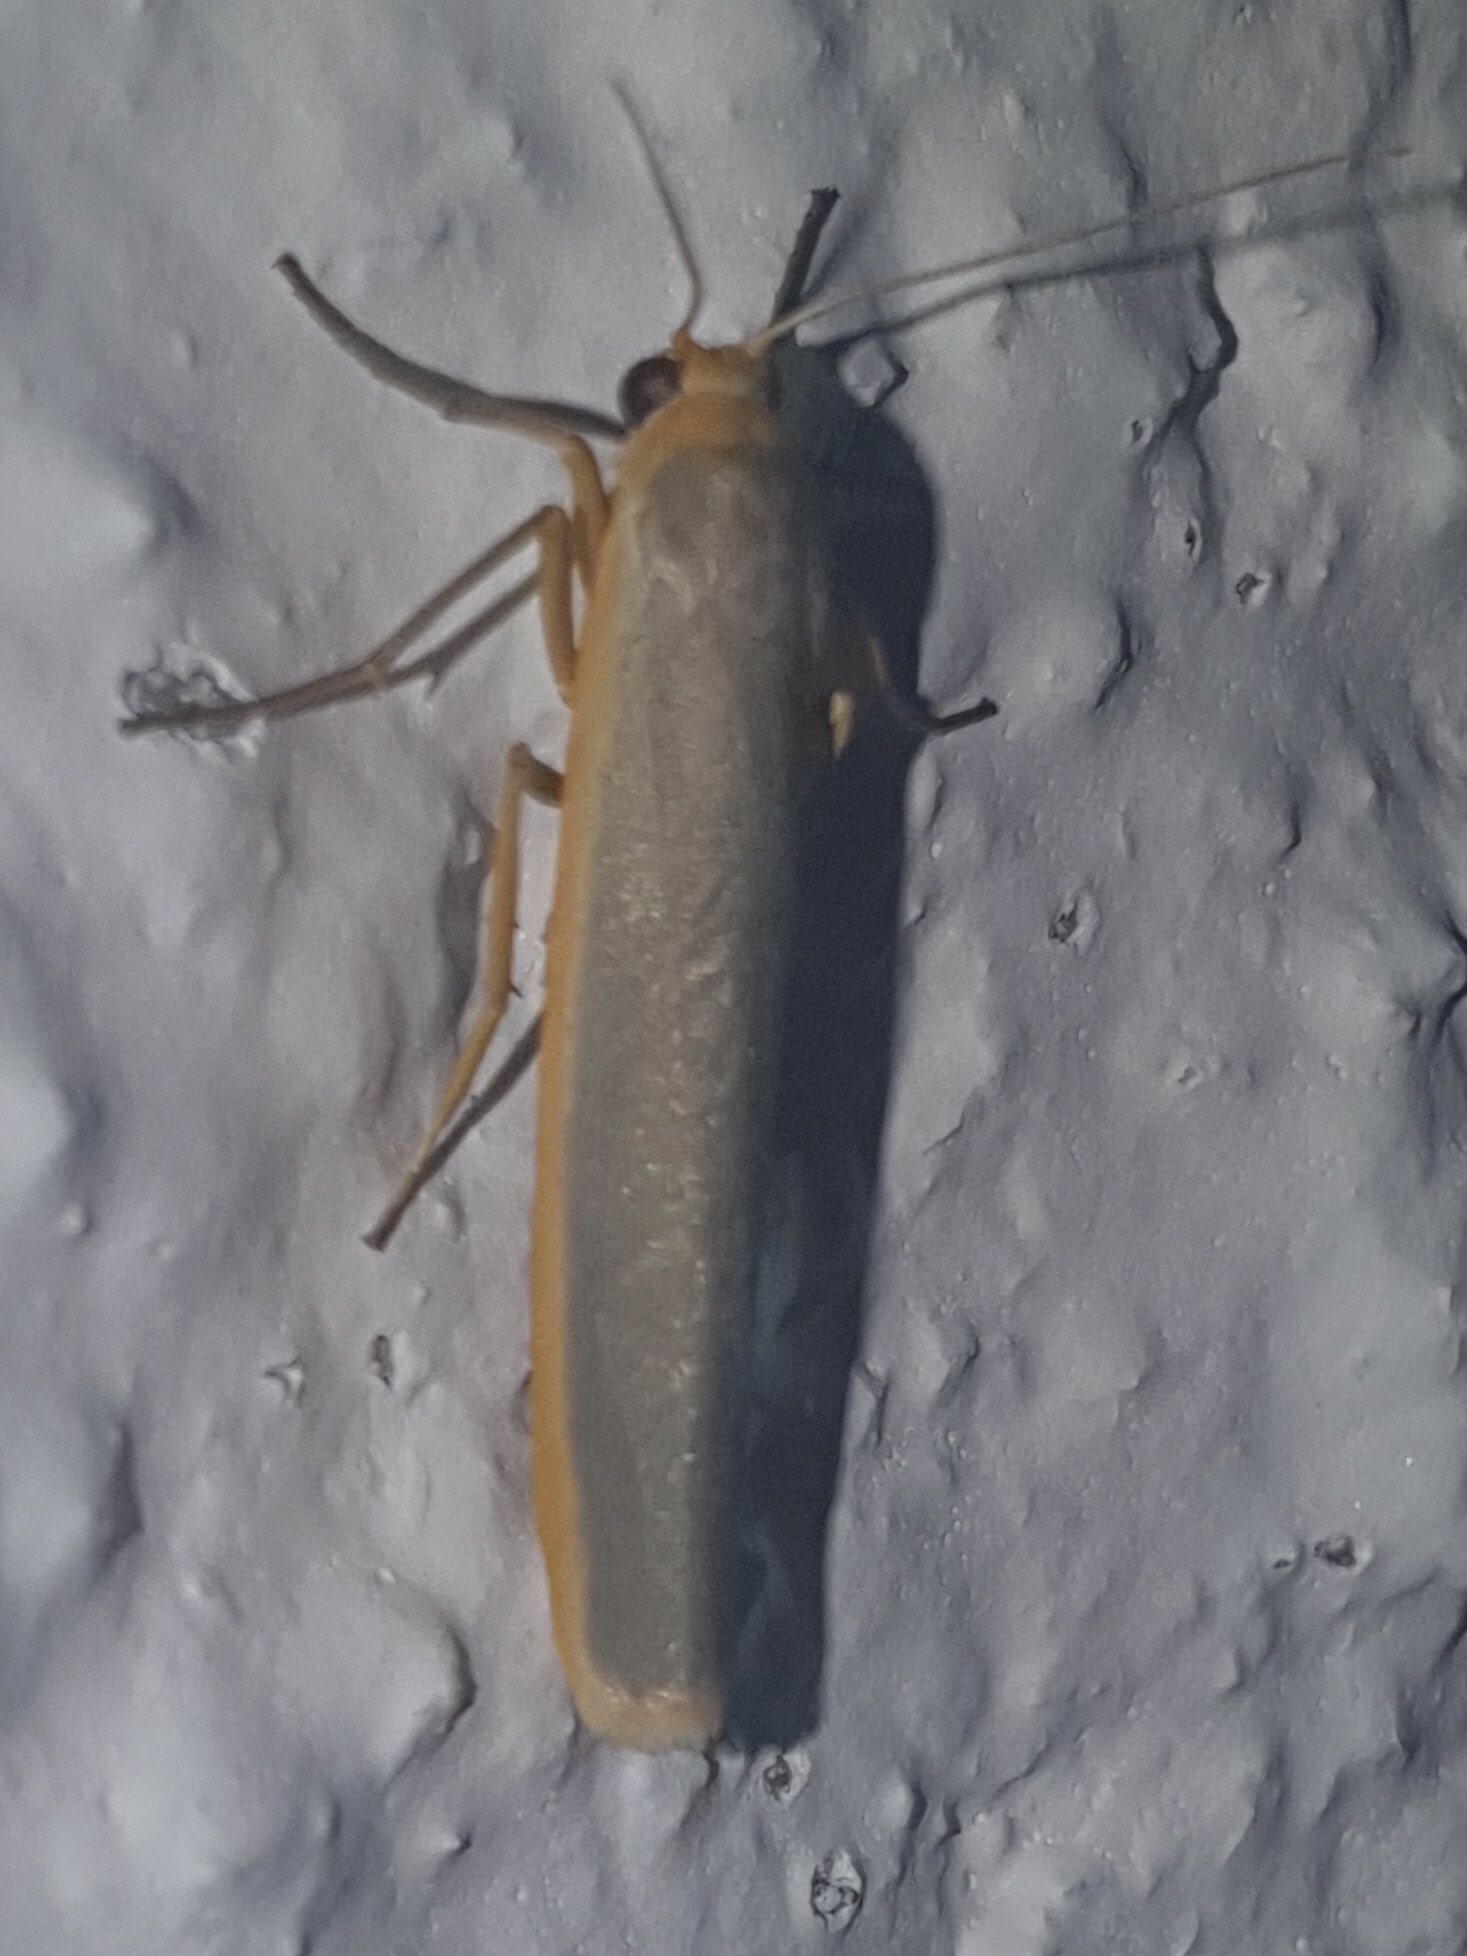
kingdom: Animalia
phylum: Arthropoda
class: Insecta
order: Lepidoptera
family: Erebidae
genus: Manulea
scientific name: Manulea complana
